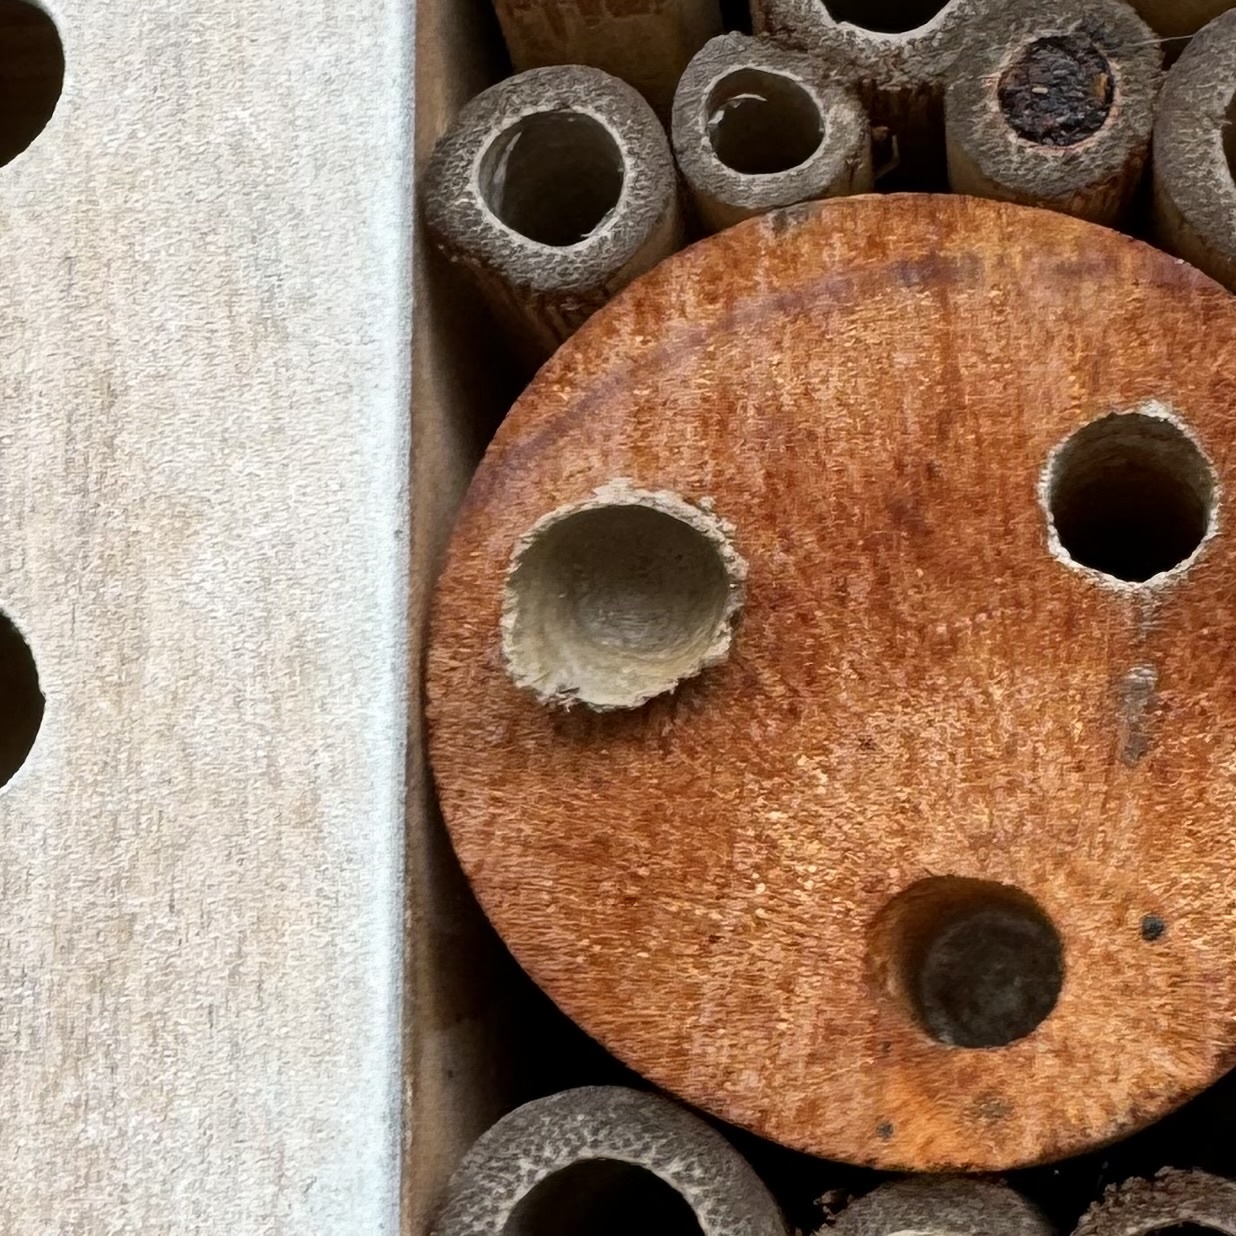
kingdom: Animalia
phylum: Arthropoda
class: Insecta
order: Hymenoptera
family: Eumenidae
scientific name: Eumenidae
